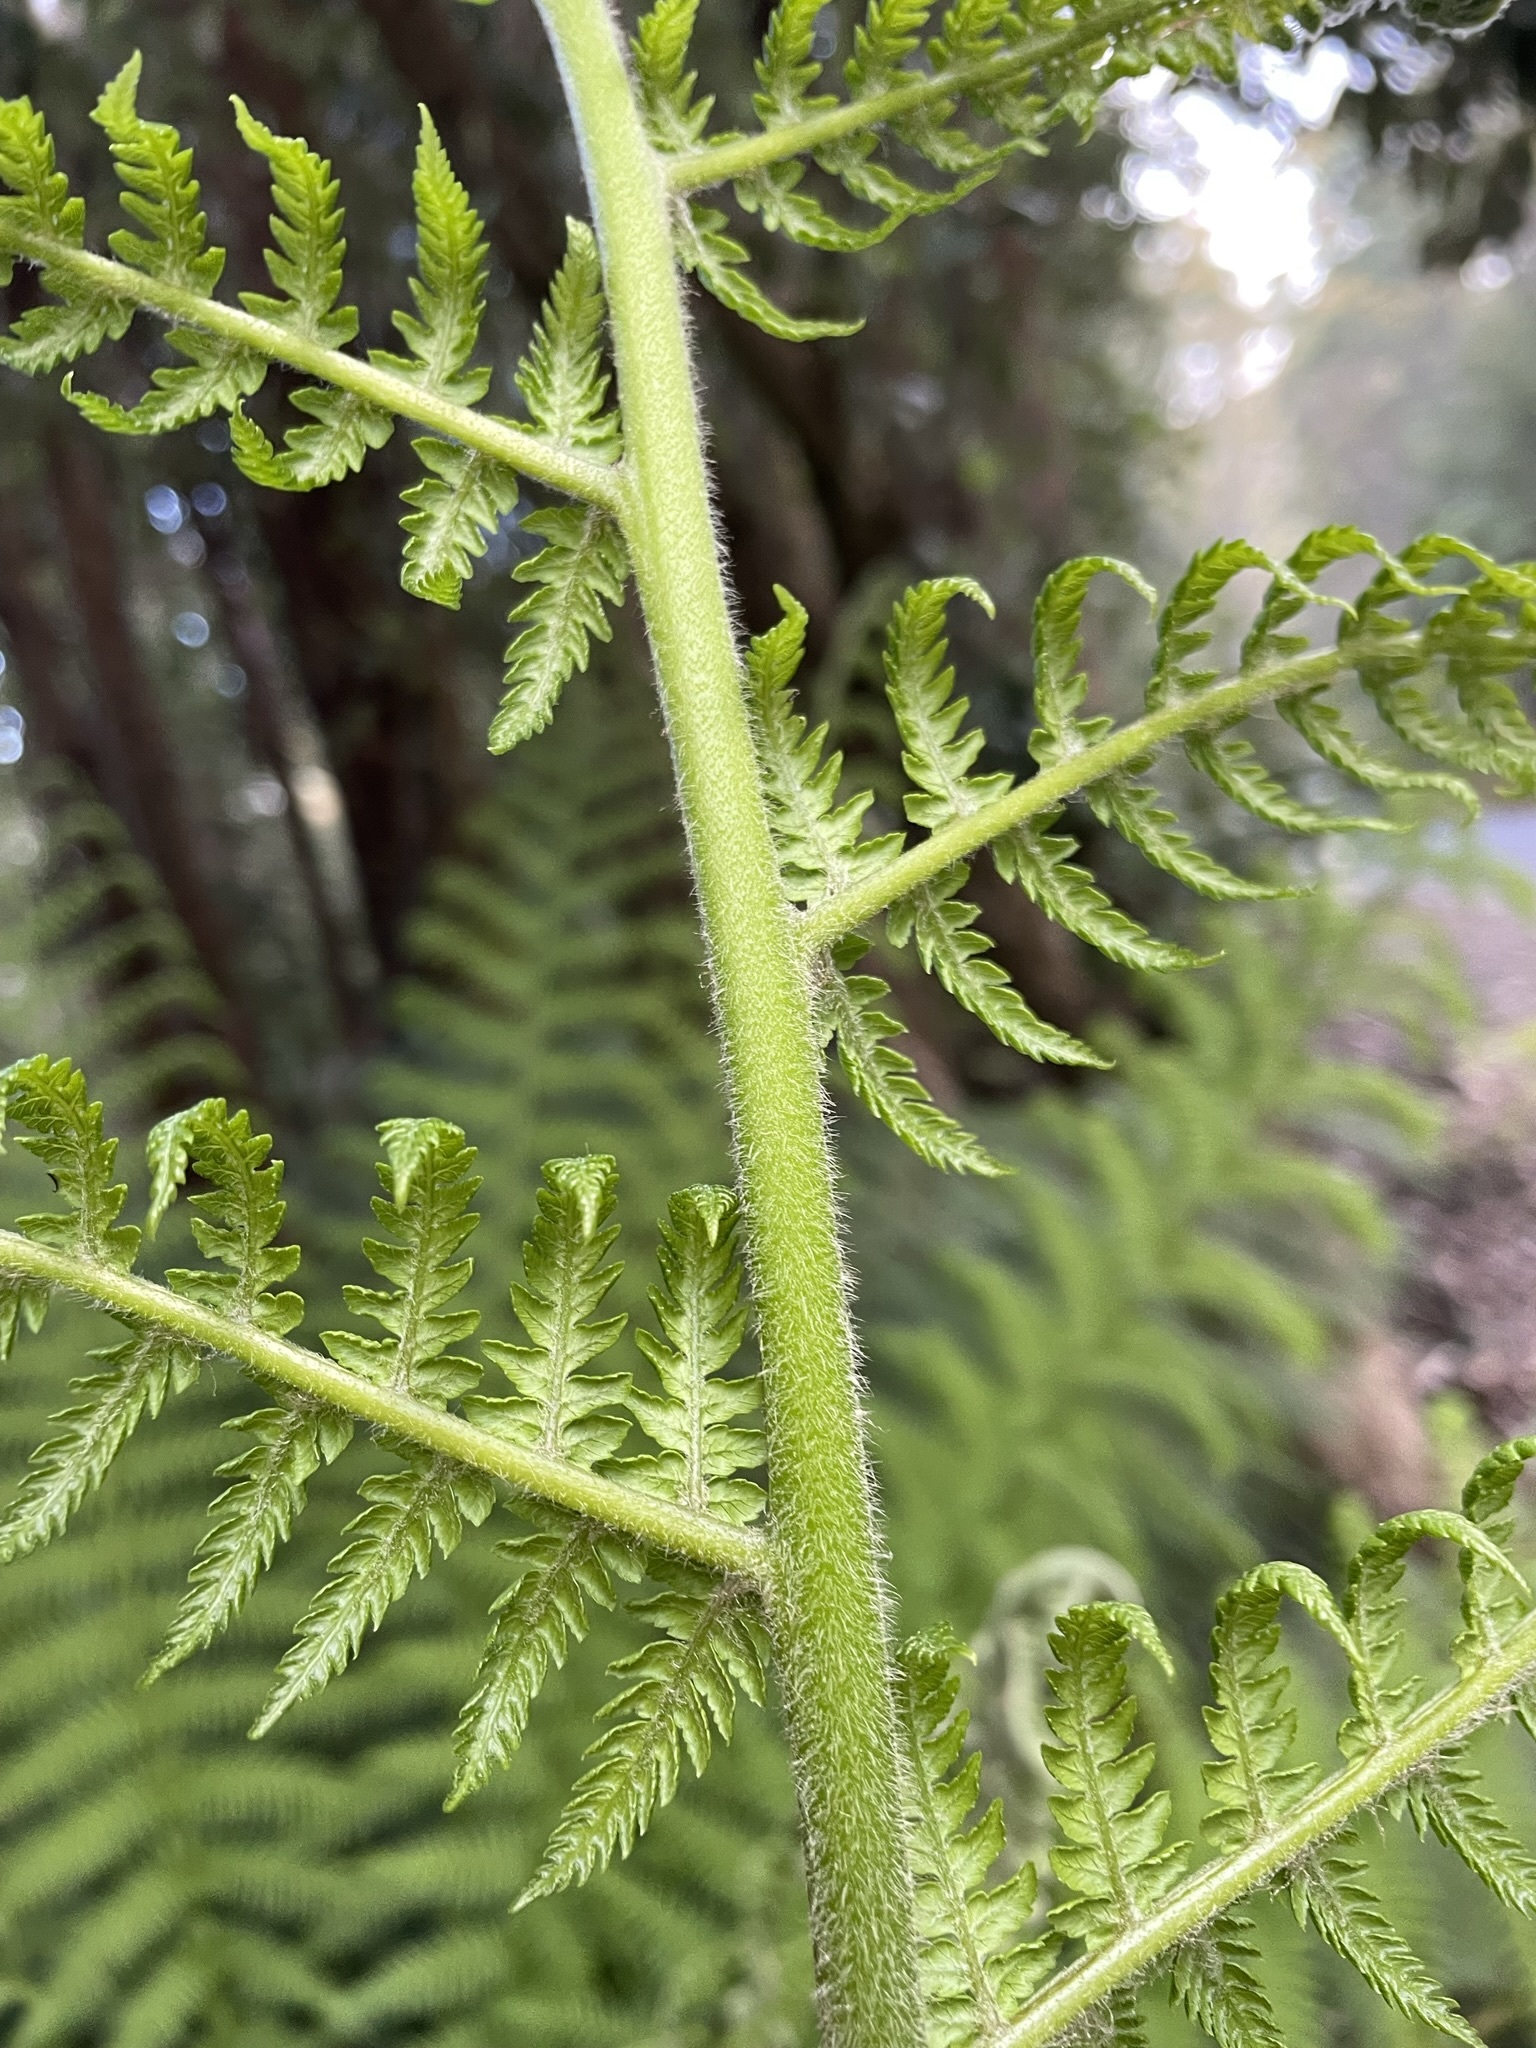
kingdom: Plantae
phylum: Tracheophyta
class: Polypodiopsida
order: Cyatheales
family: Dicksoniaceae
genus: Dicksonia
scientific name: Dicksonia antarctica
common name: Australian treefern
